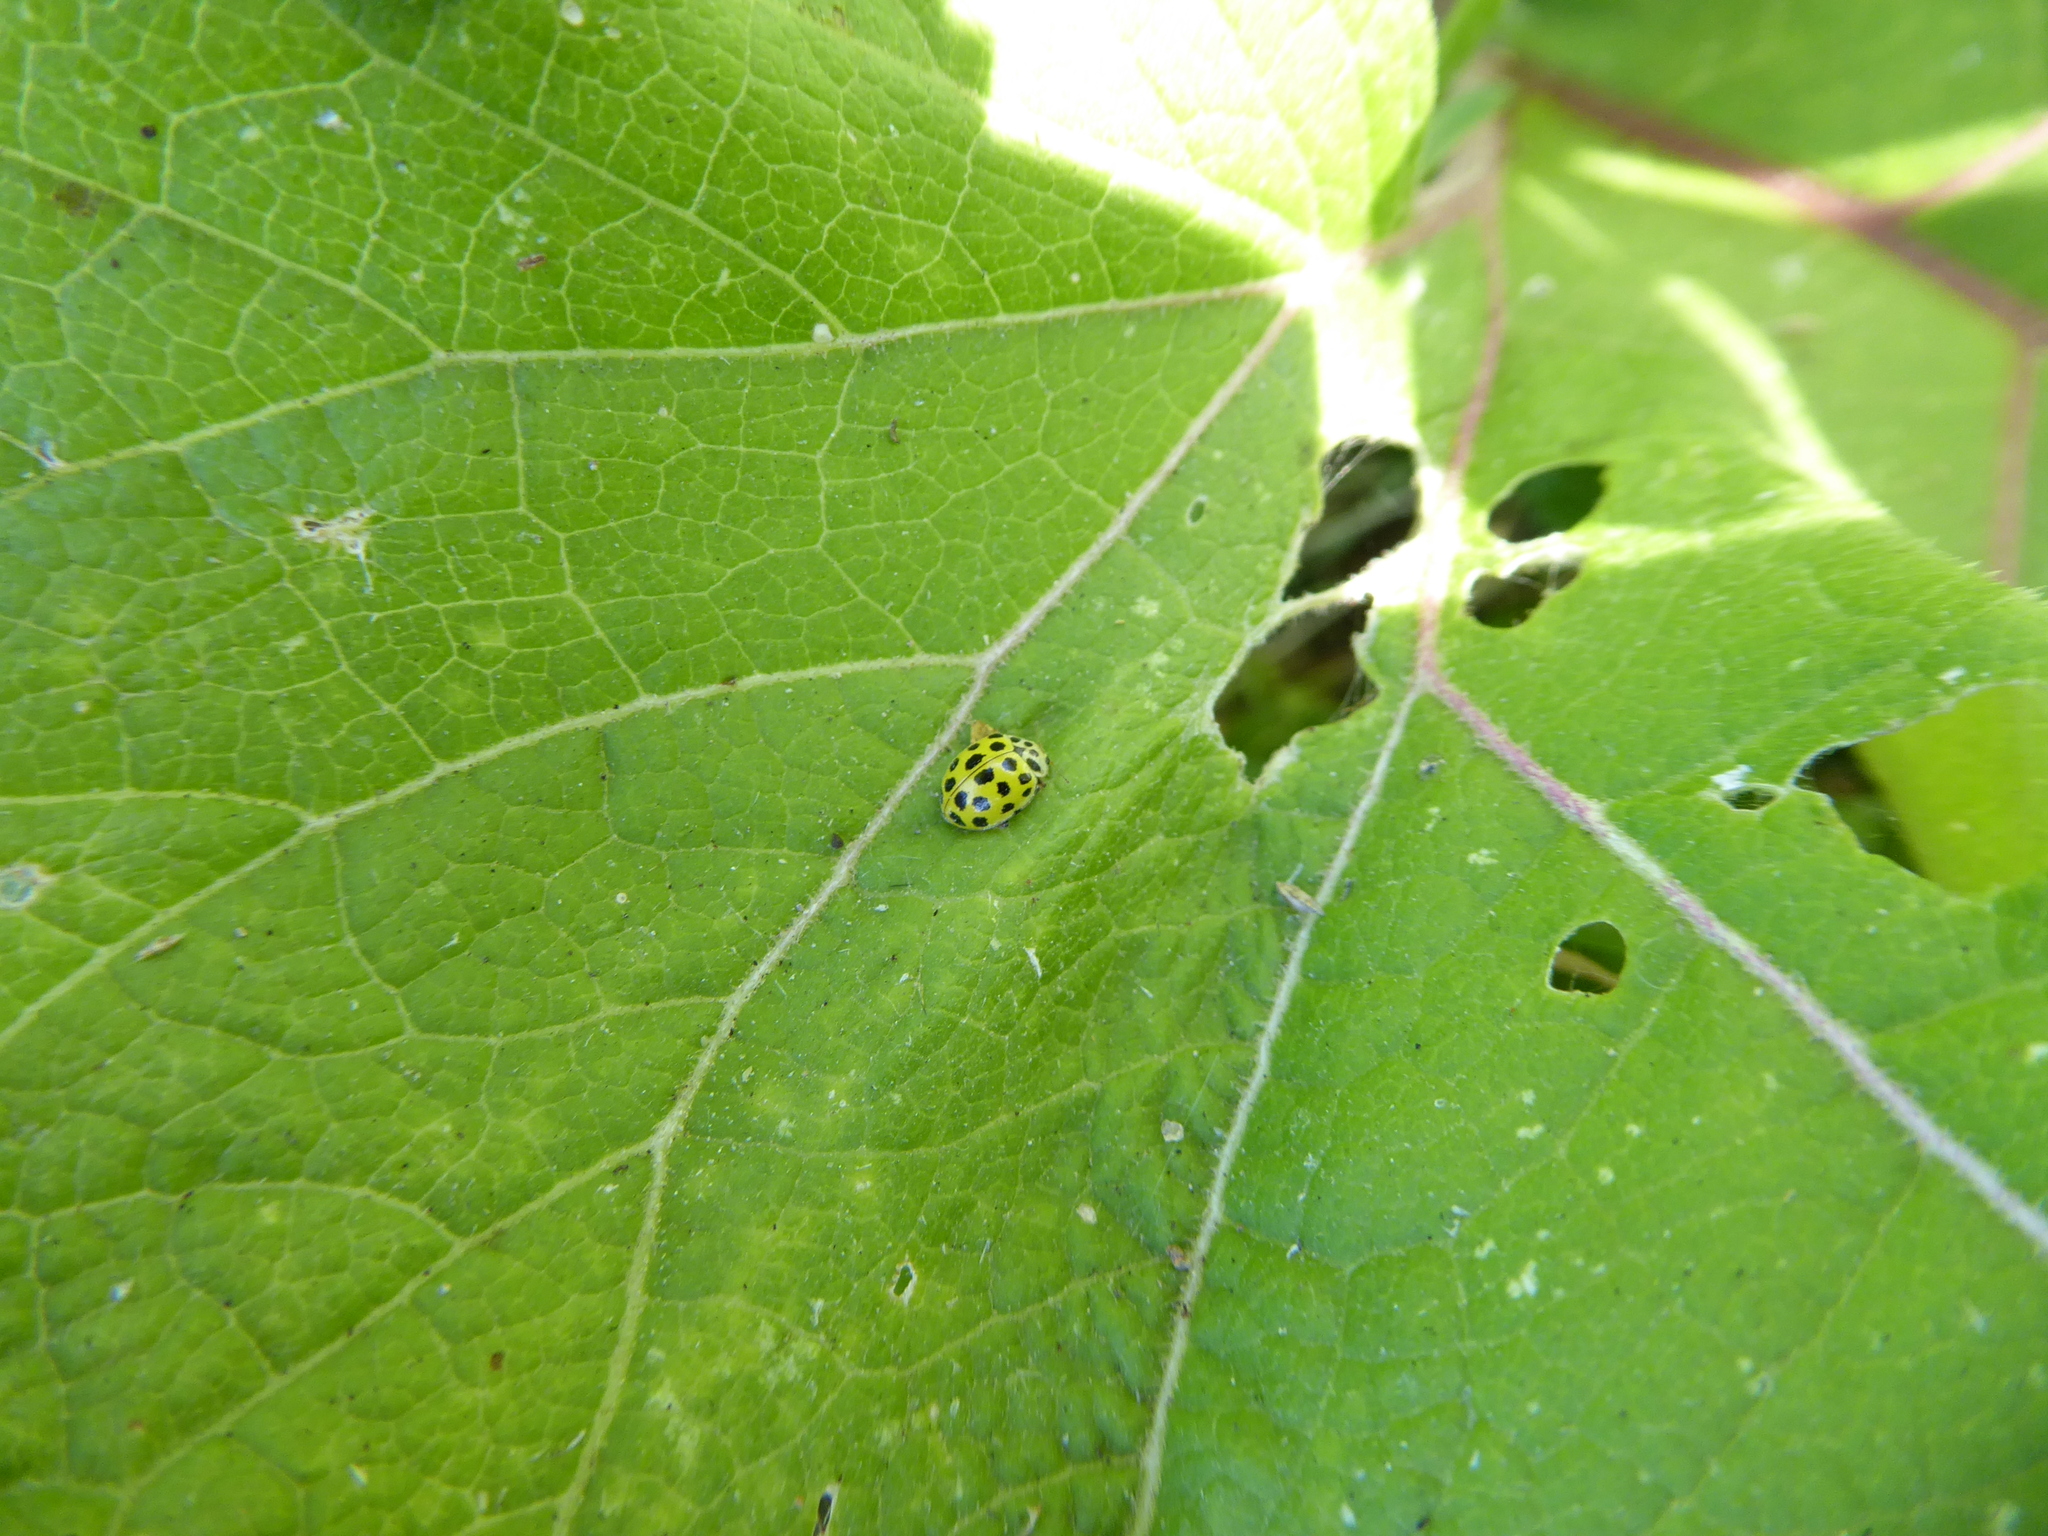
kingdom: Animalia
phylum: Arthropoda
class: Insecta
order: Coleoptera
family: Coccinellidae
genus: Psyllobora
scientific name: Psyllobora vigintiduopunctata
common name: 22-spot ladybird
